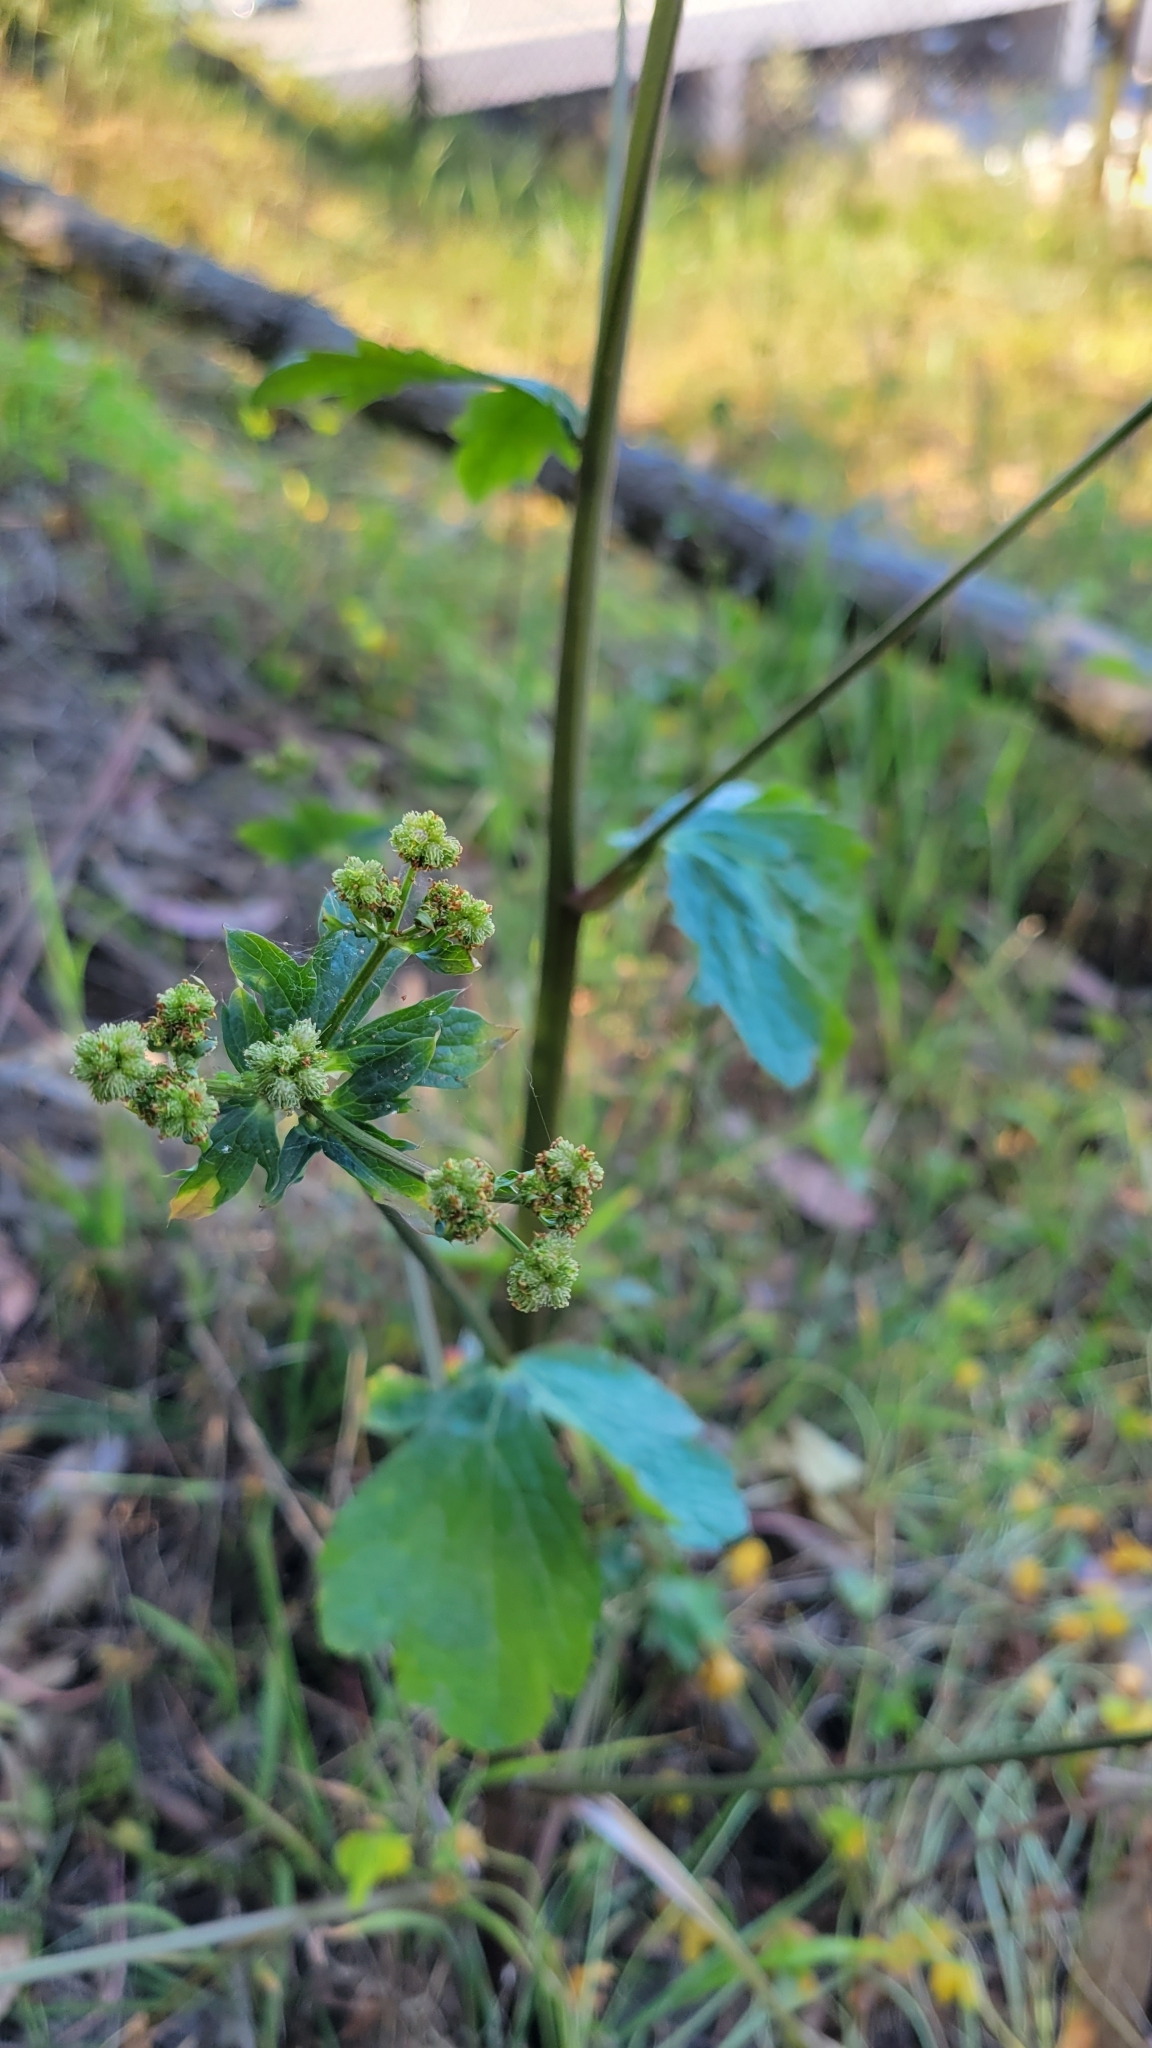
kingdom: Plantae
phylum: Tracheophyta
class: Magnoliopsida
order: Apiales
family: Apiaceae
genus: Sanicula
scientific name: Sanicula crassicaulis
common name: Western snakeroot
